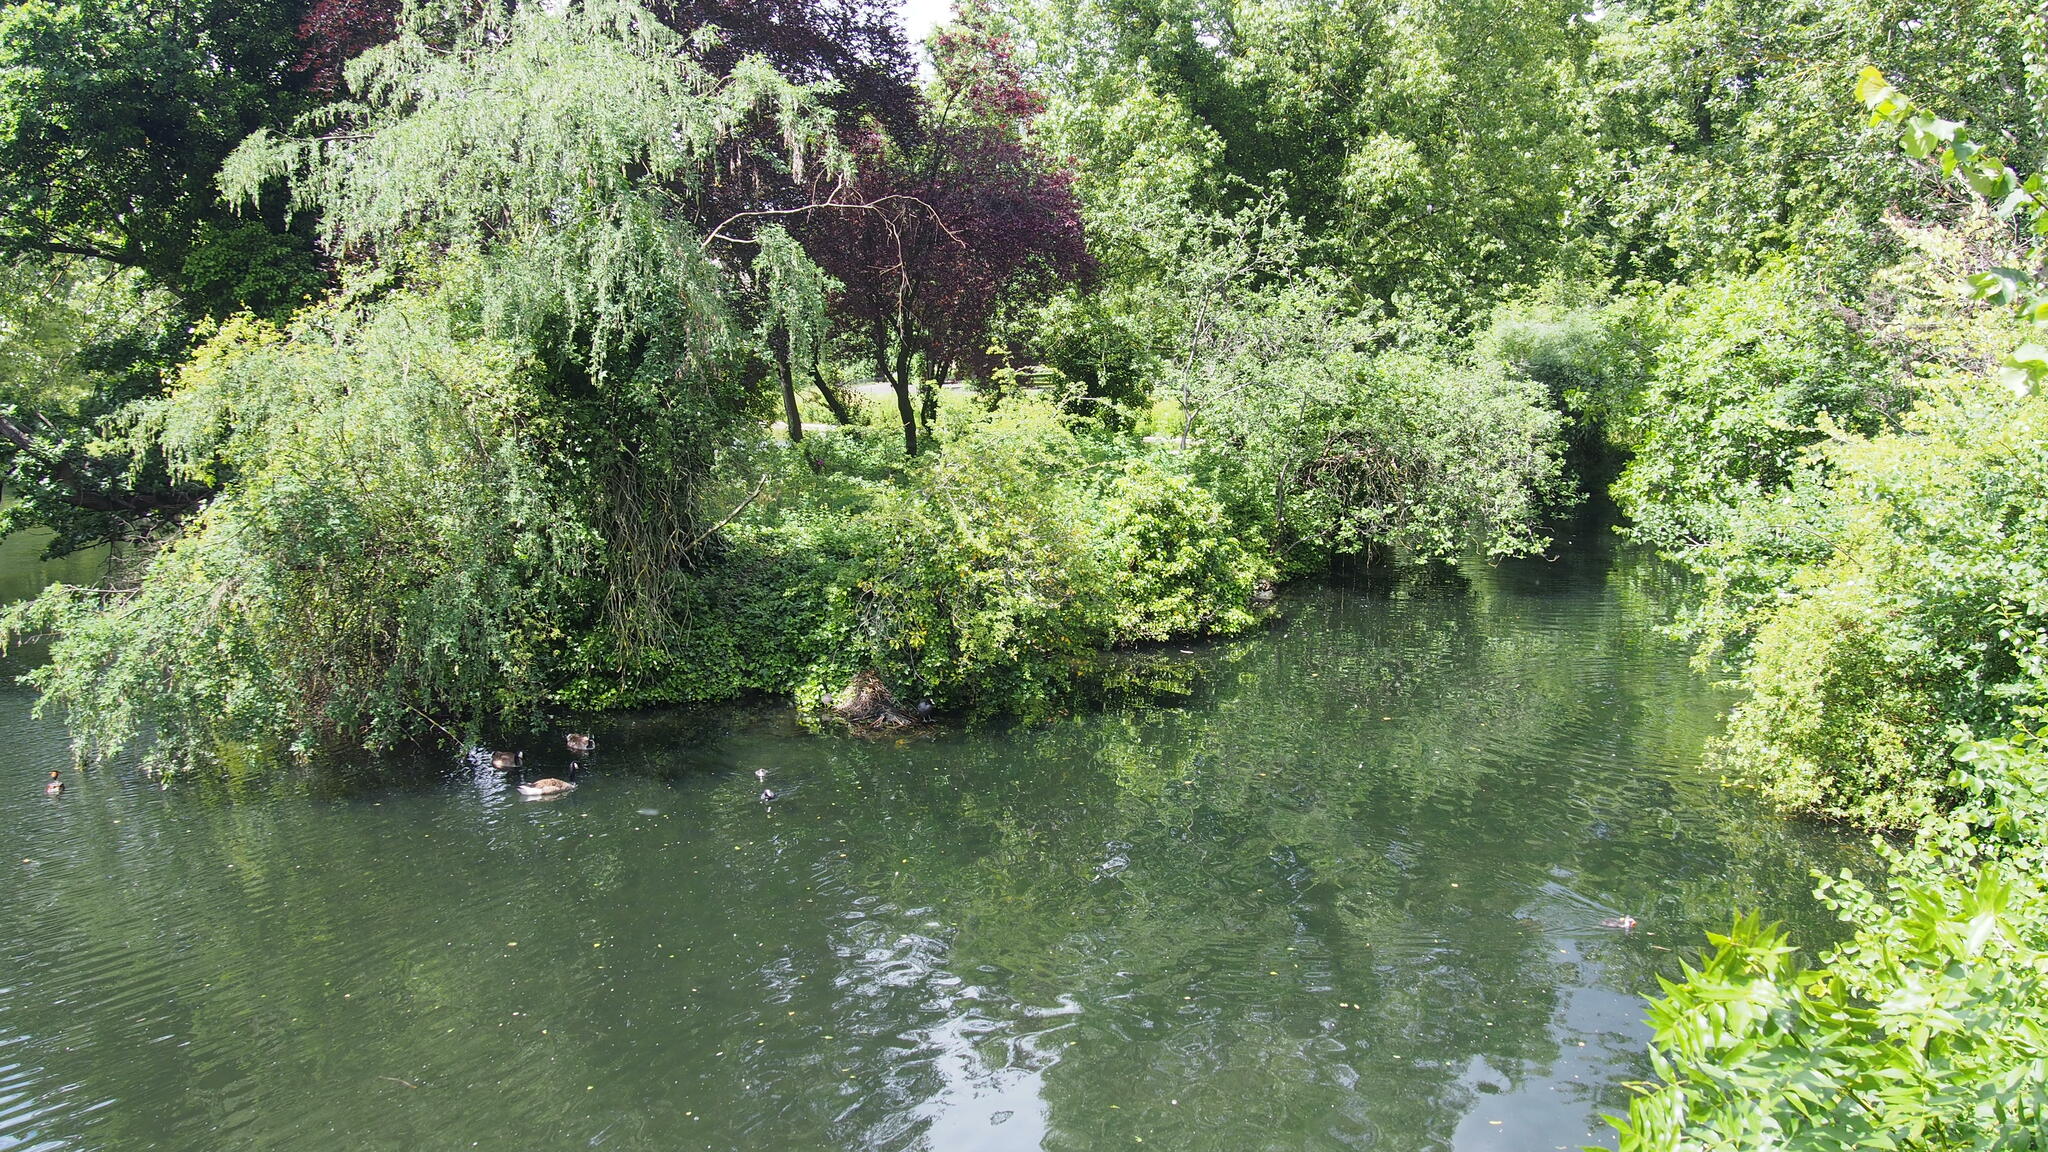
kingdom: Animalia
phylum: Chordata
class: Aves
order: Anseriformes
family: Anatidae
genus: Branta
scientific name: Branta canadensis
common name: Canada goose
